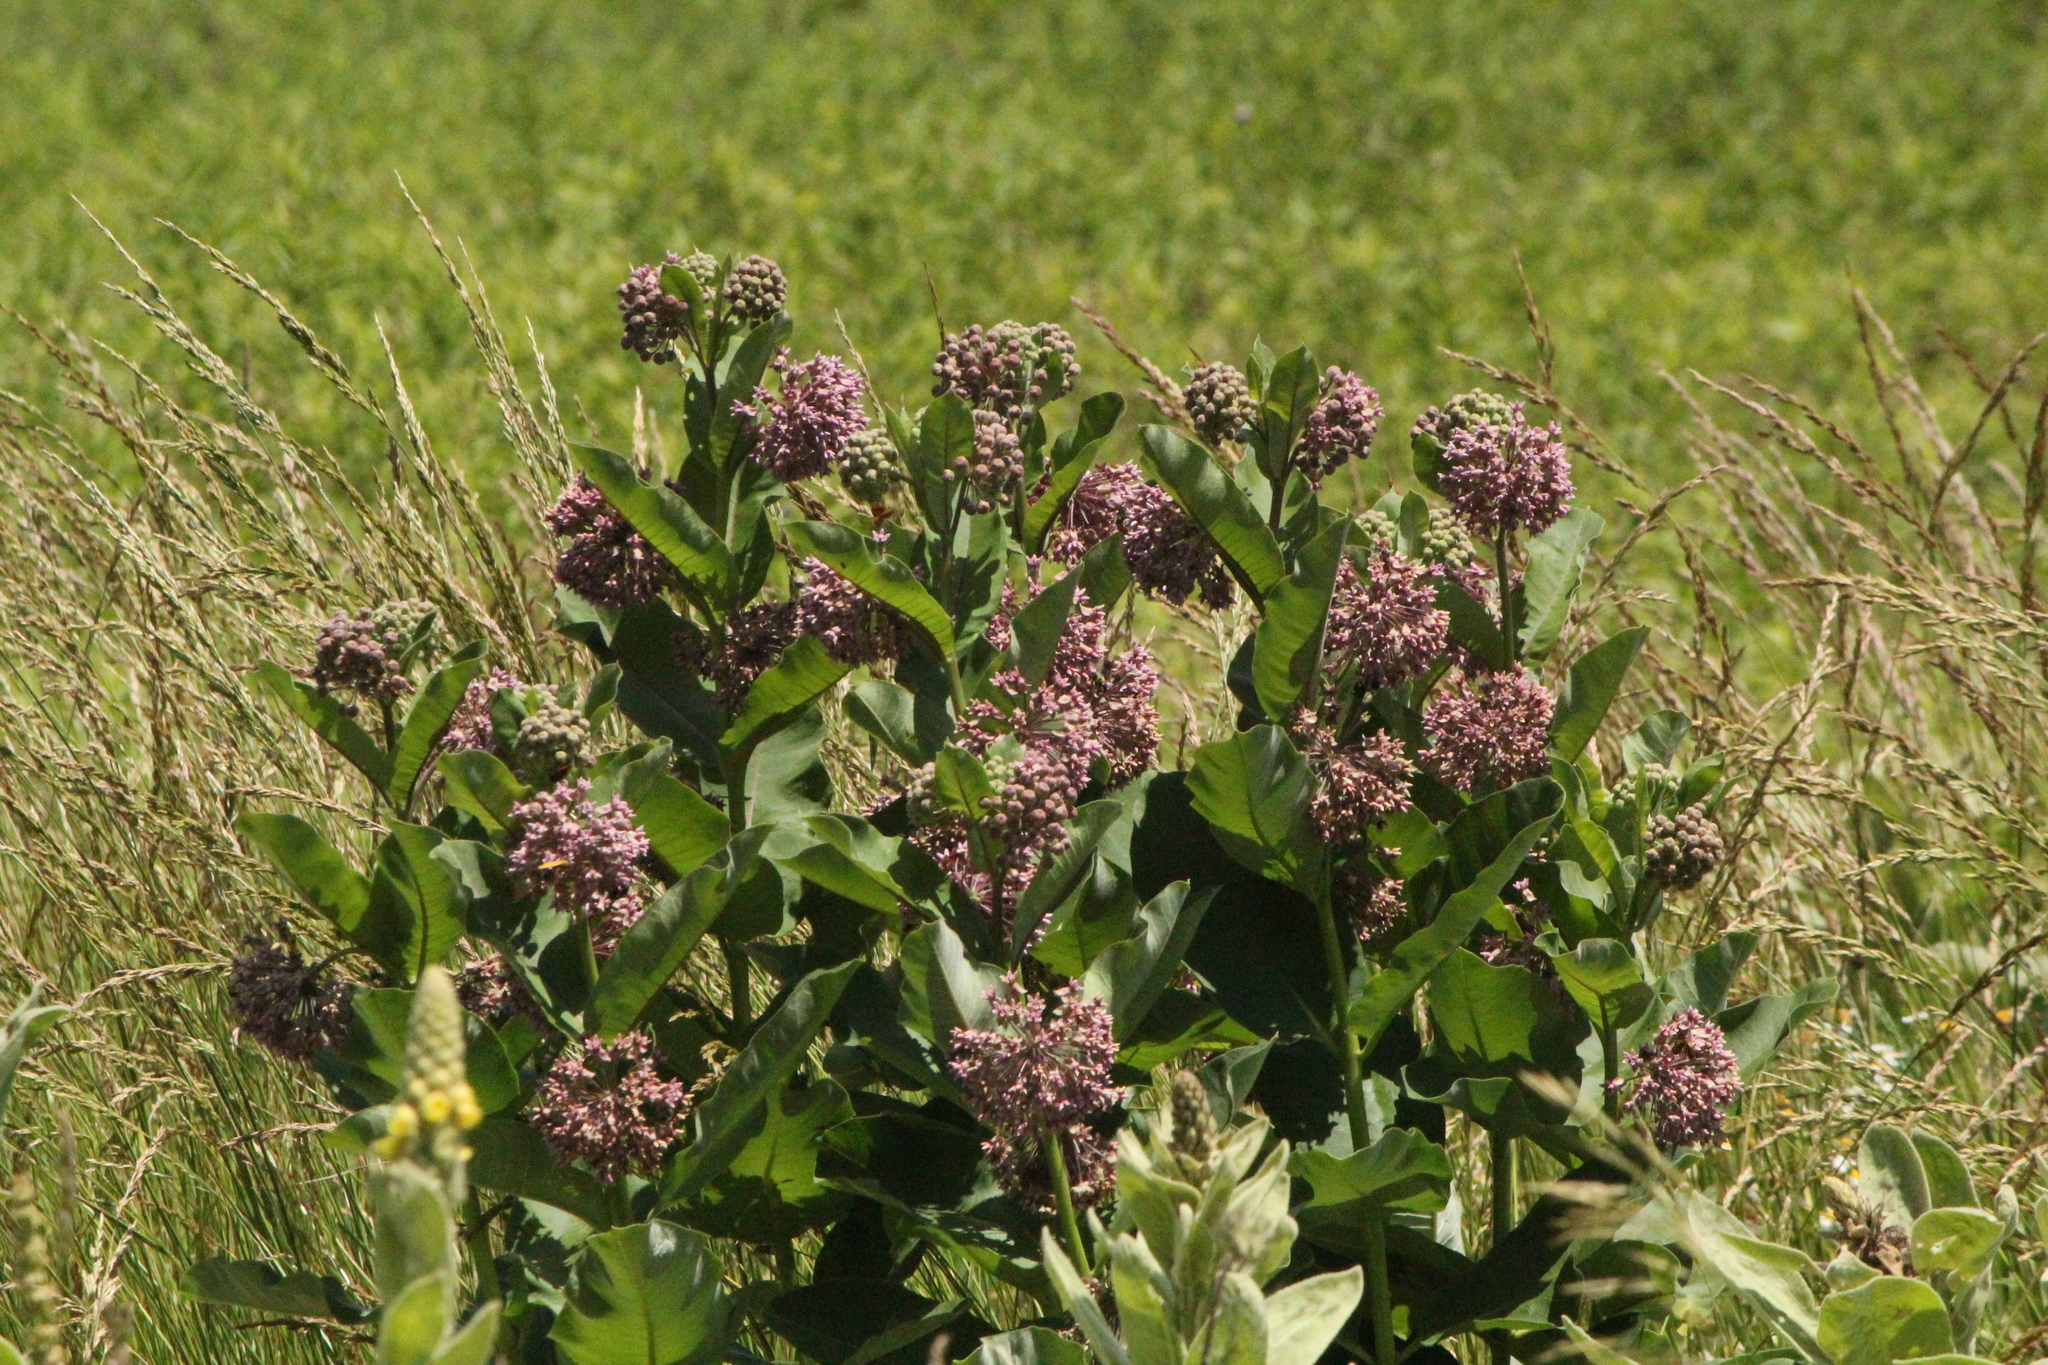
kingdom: Plantae
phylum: Tracheophyta
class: Magnoliopsida
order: Gentianales
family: Apocynaceae
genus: Asclepias
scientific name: Asclepias syriaca
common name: Common milkweed
